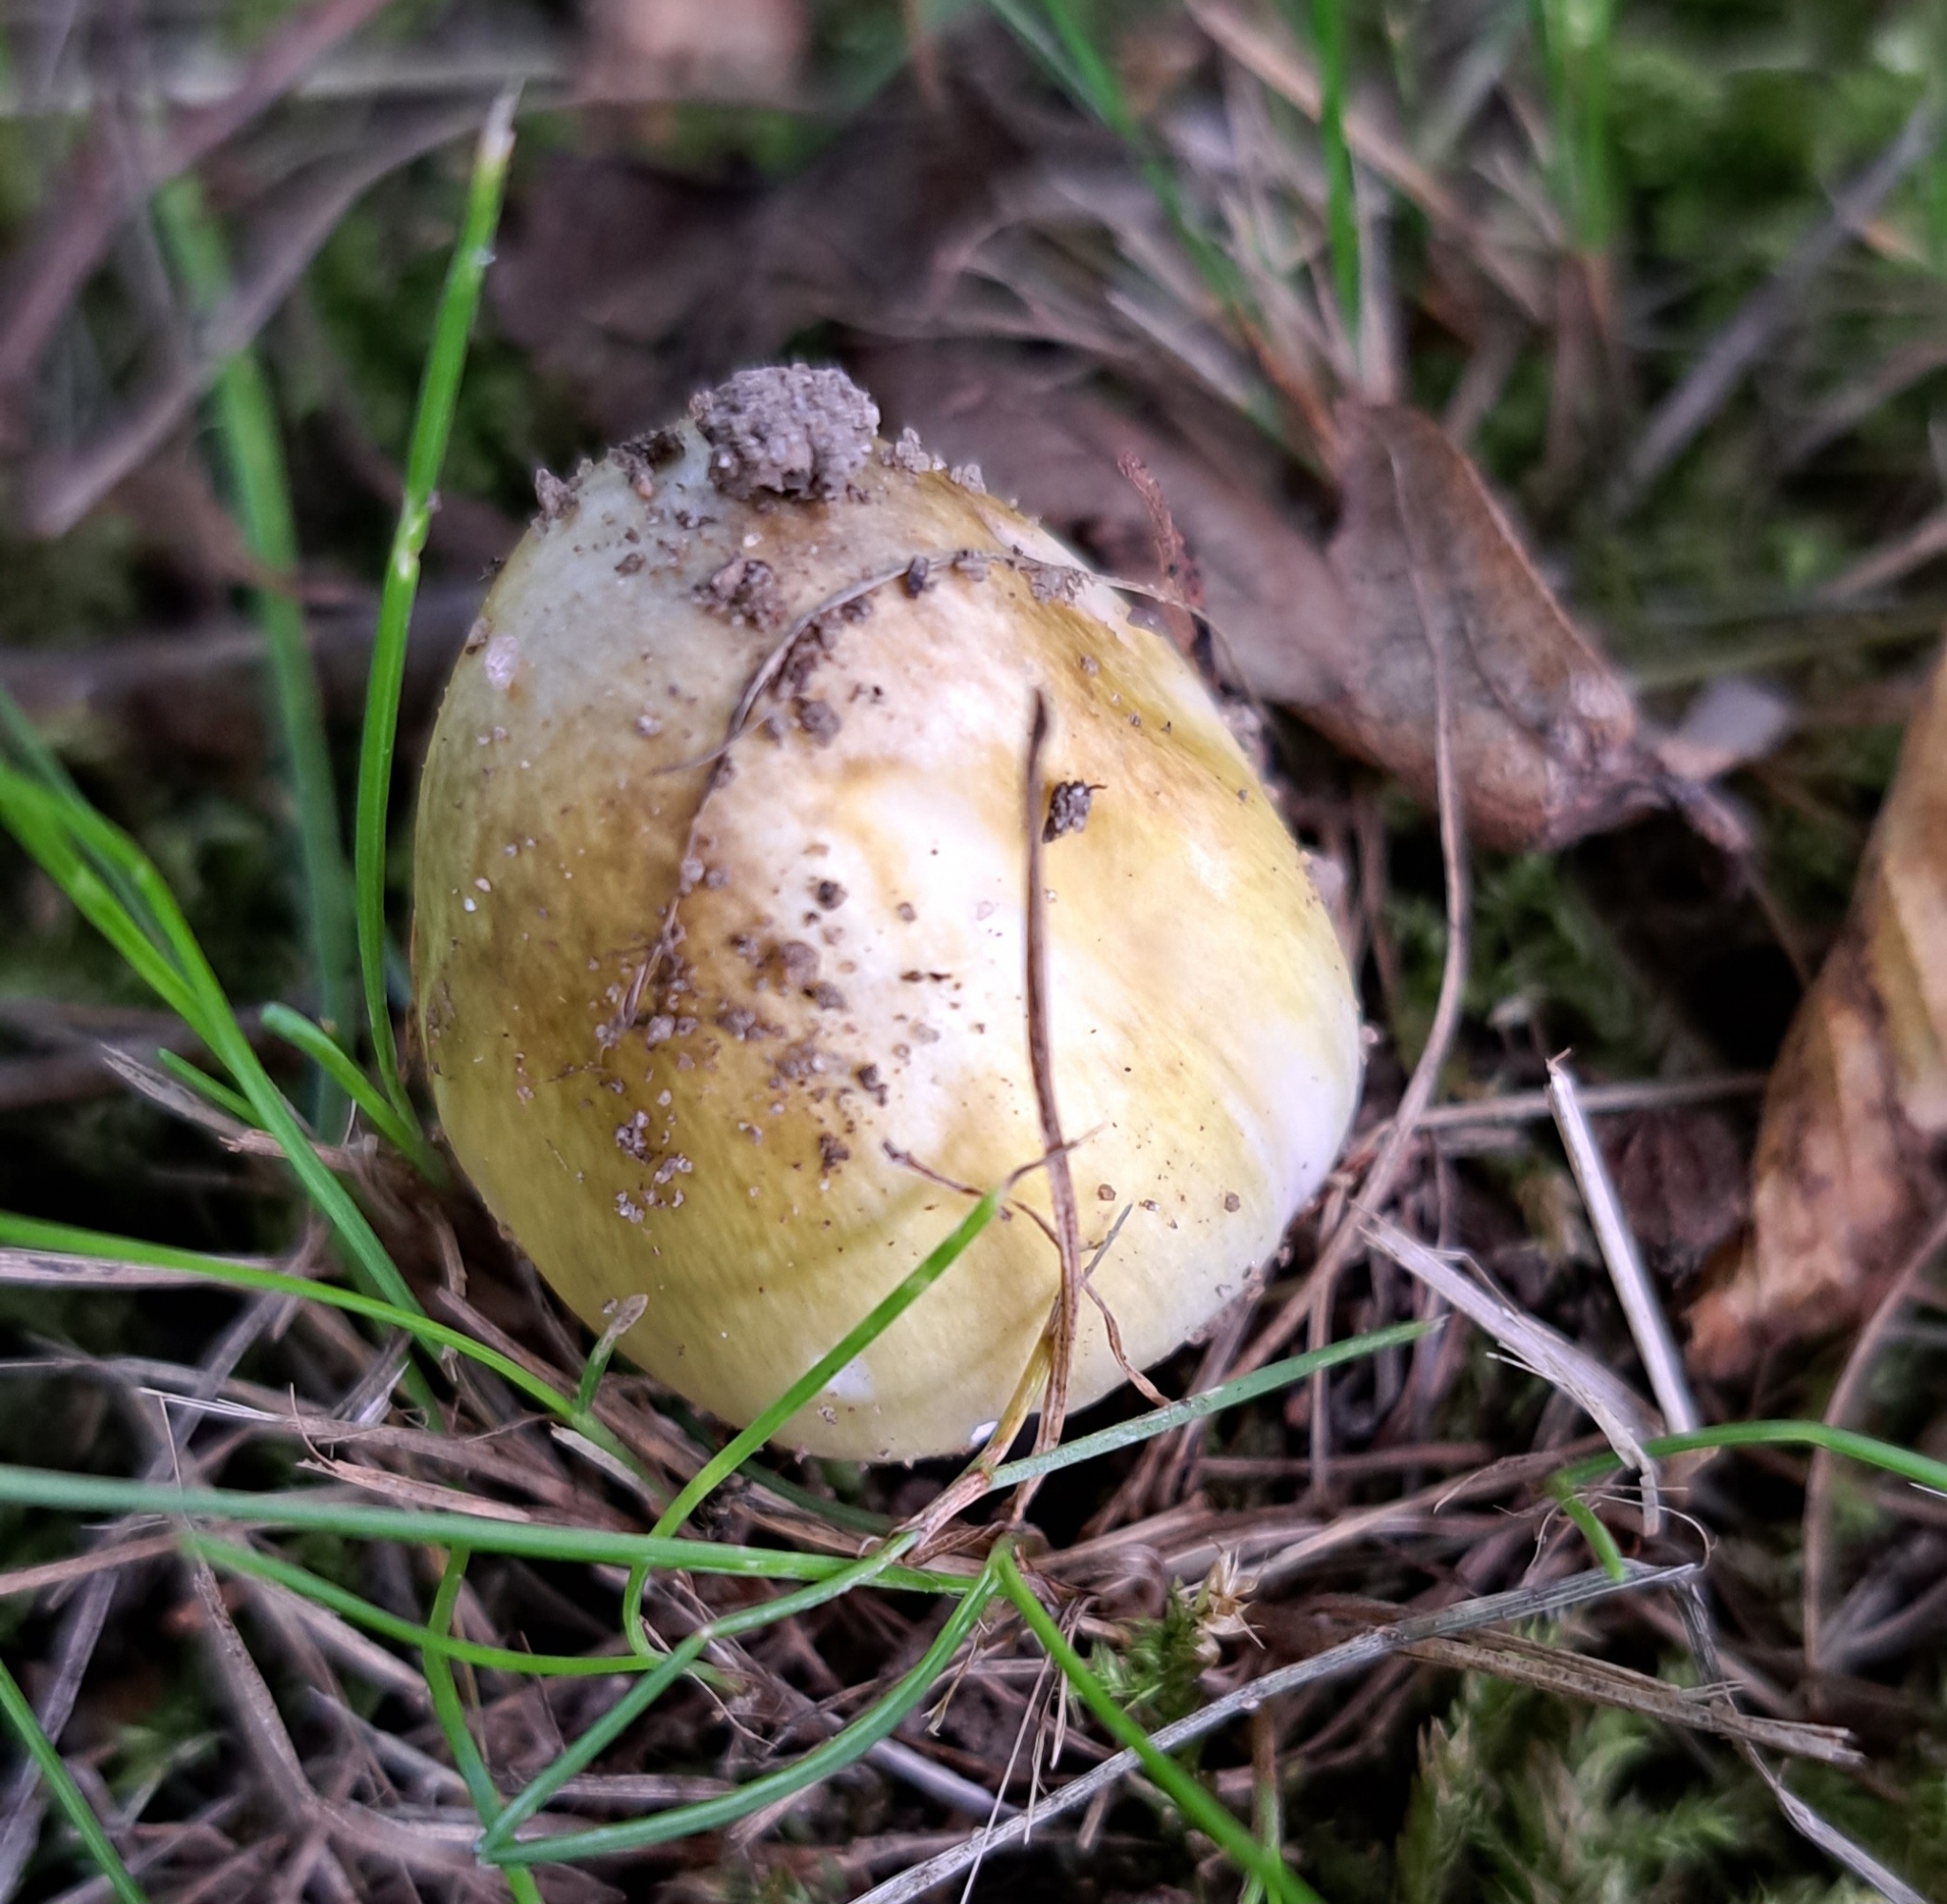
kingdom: Fungi
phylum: Basidiomycota
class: Agaricomycetes
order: Agaricales
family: Amanitaceae
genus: Amanita
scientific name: Amanita phalloides
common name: Death cap
